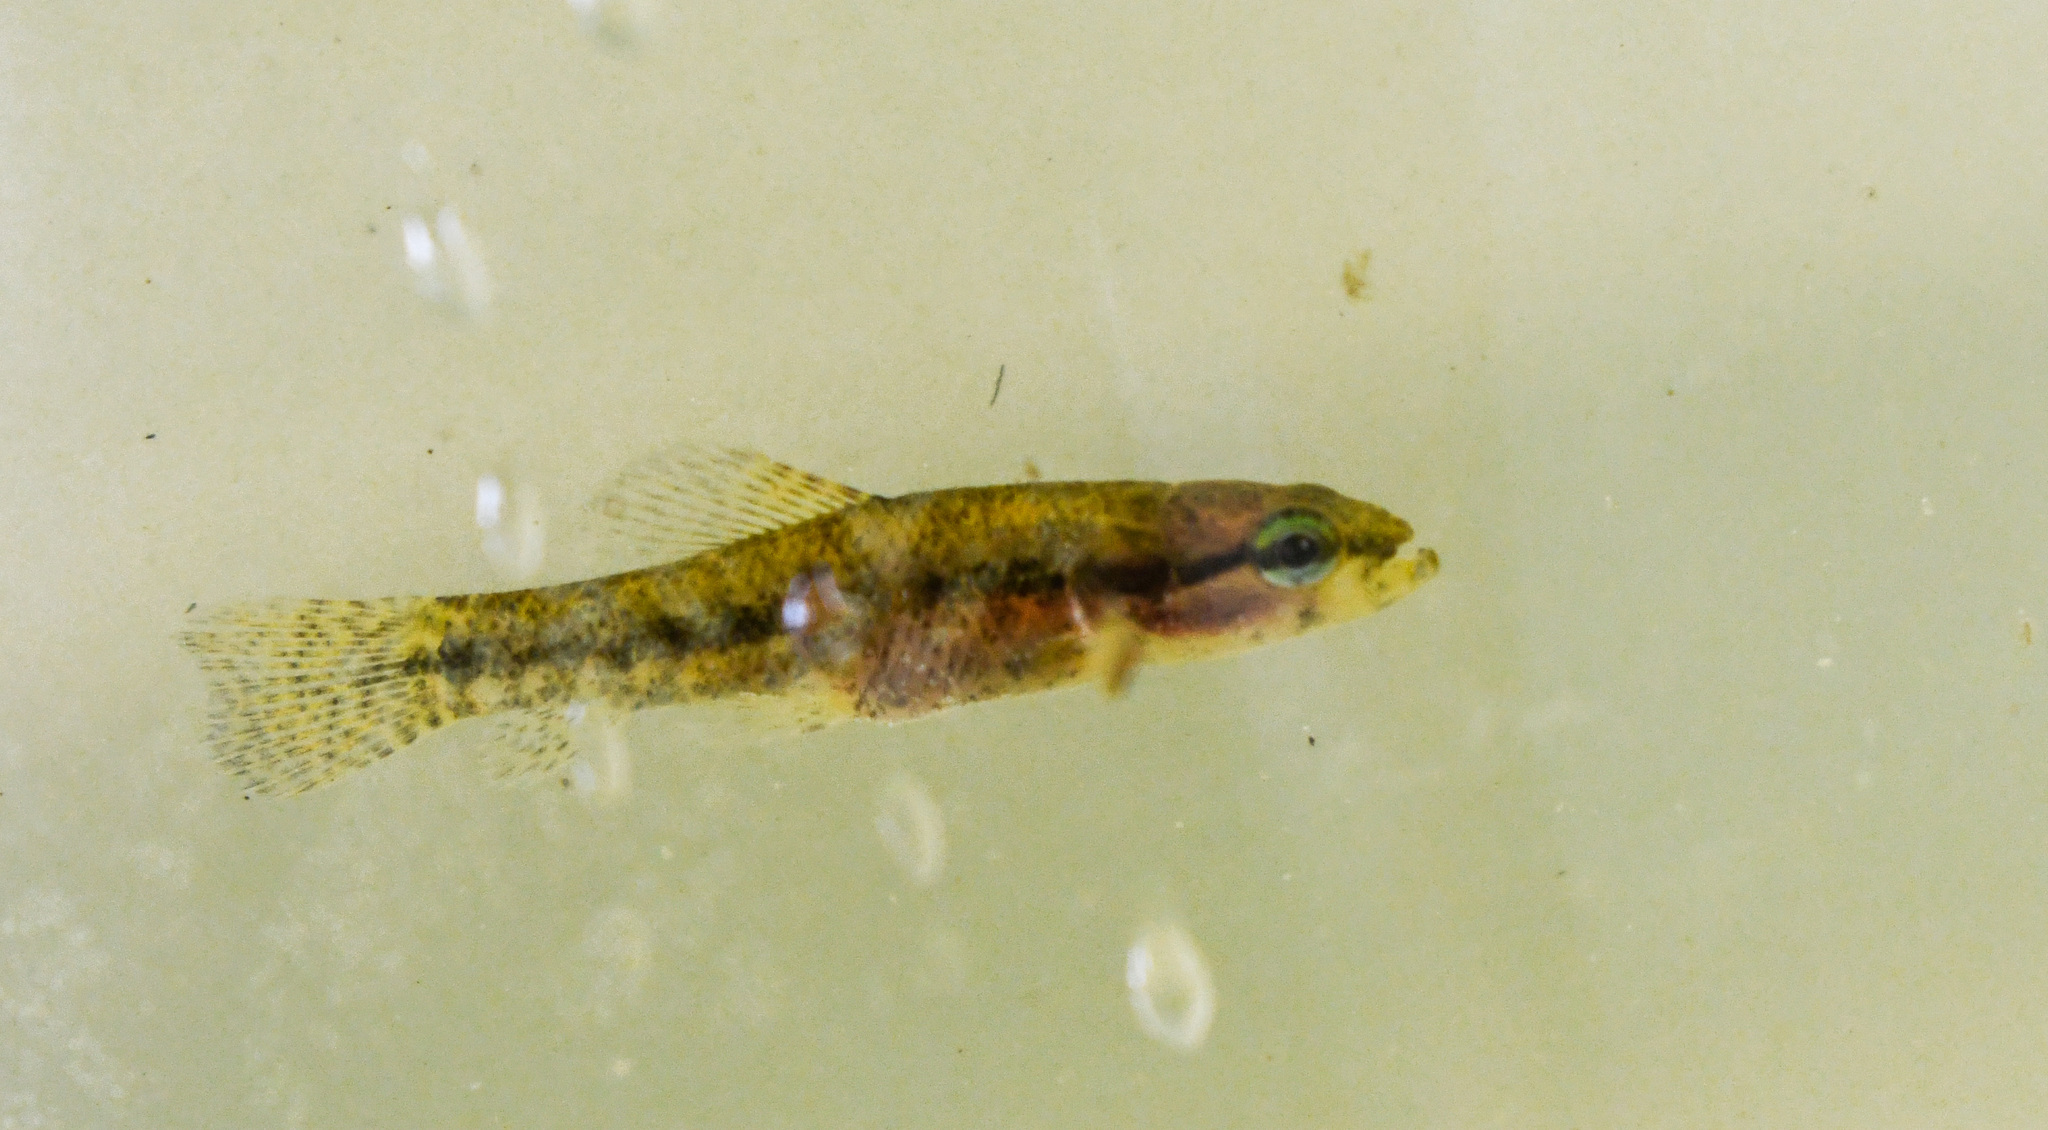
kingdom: Animalia
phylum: Chordata
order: Characiformes
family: Erythrinidae
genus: Hoplias
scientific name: Hoplias malabaricus
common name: Trahira
